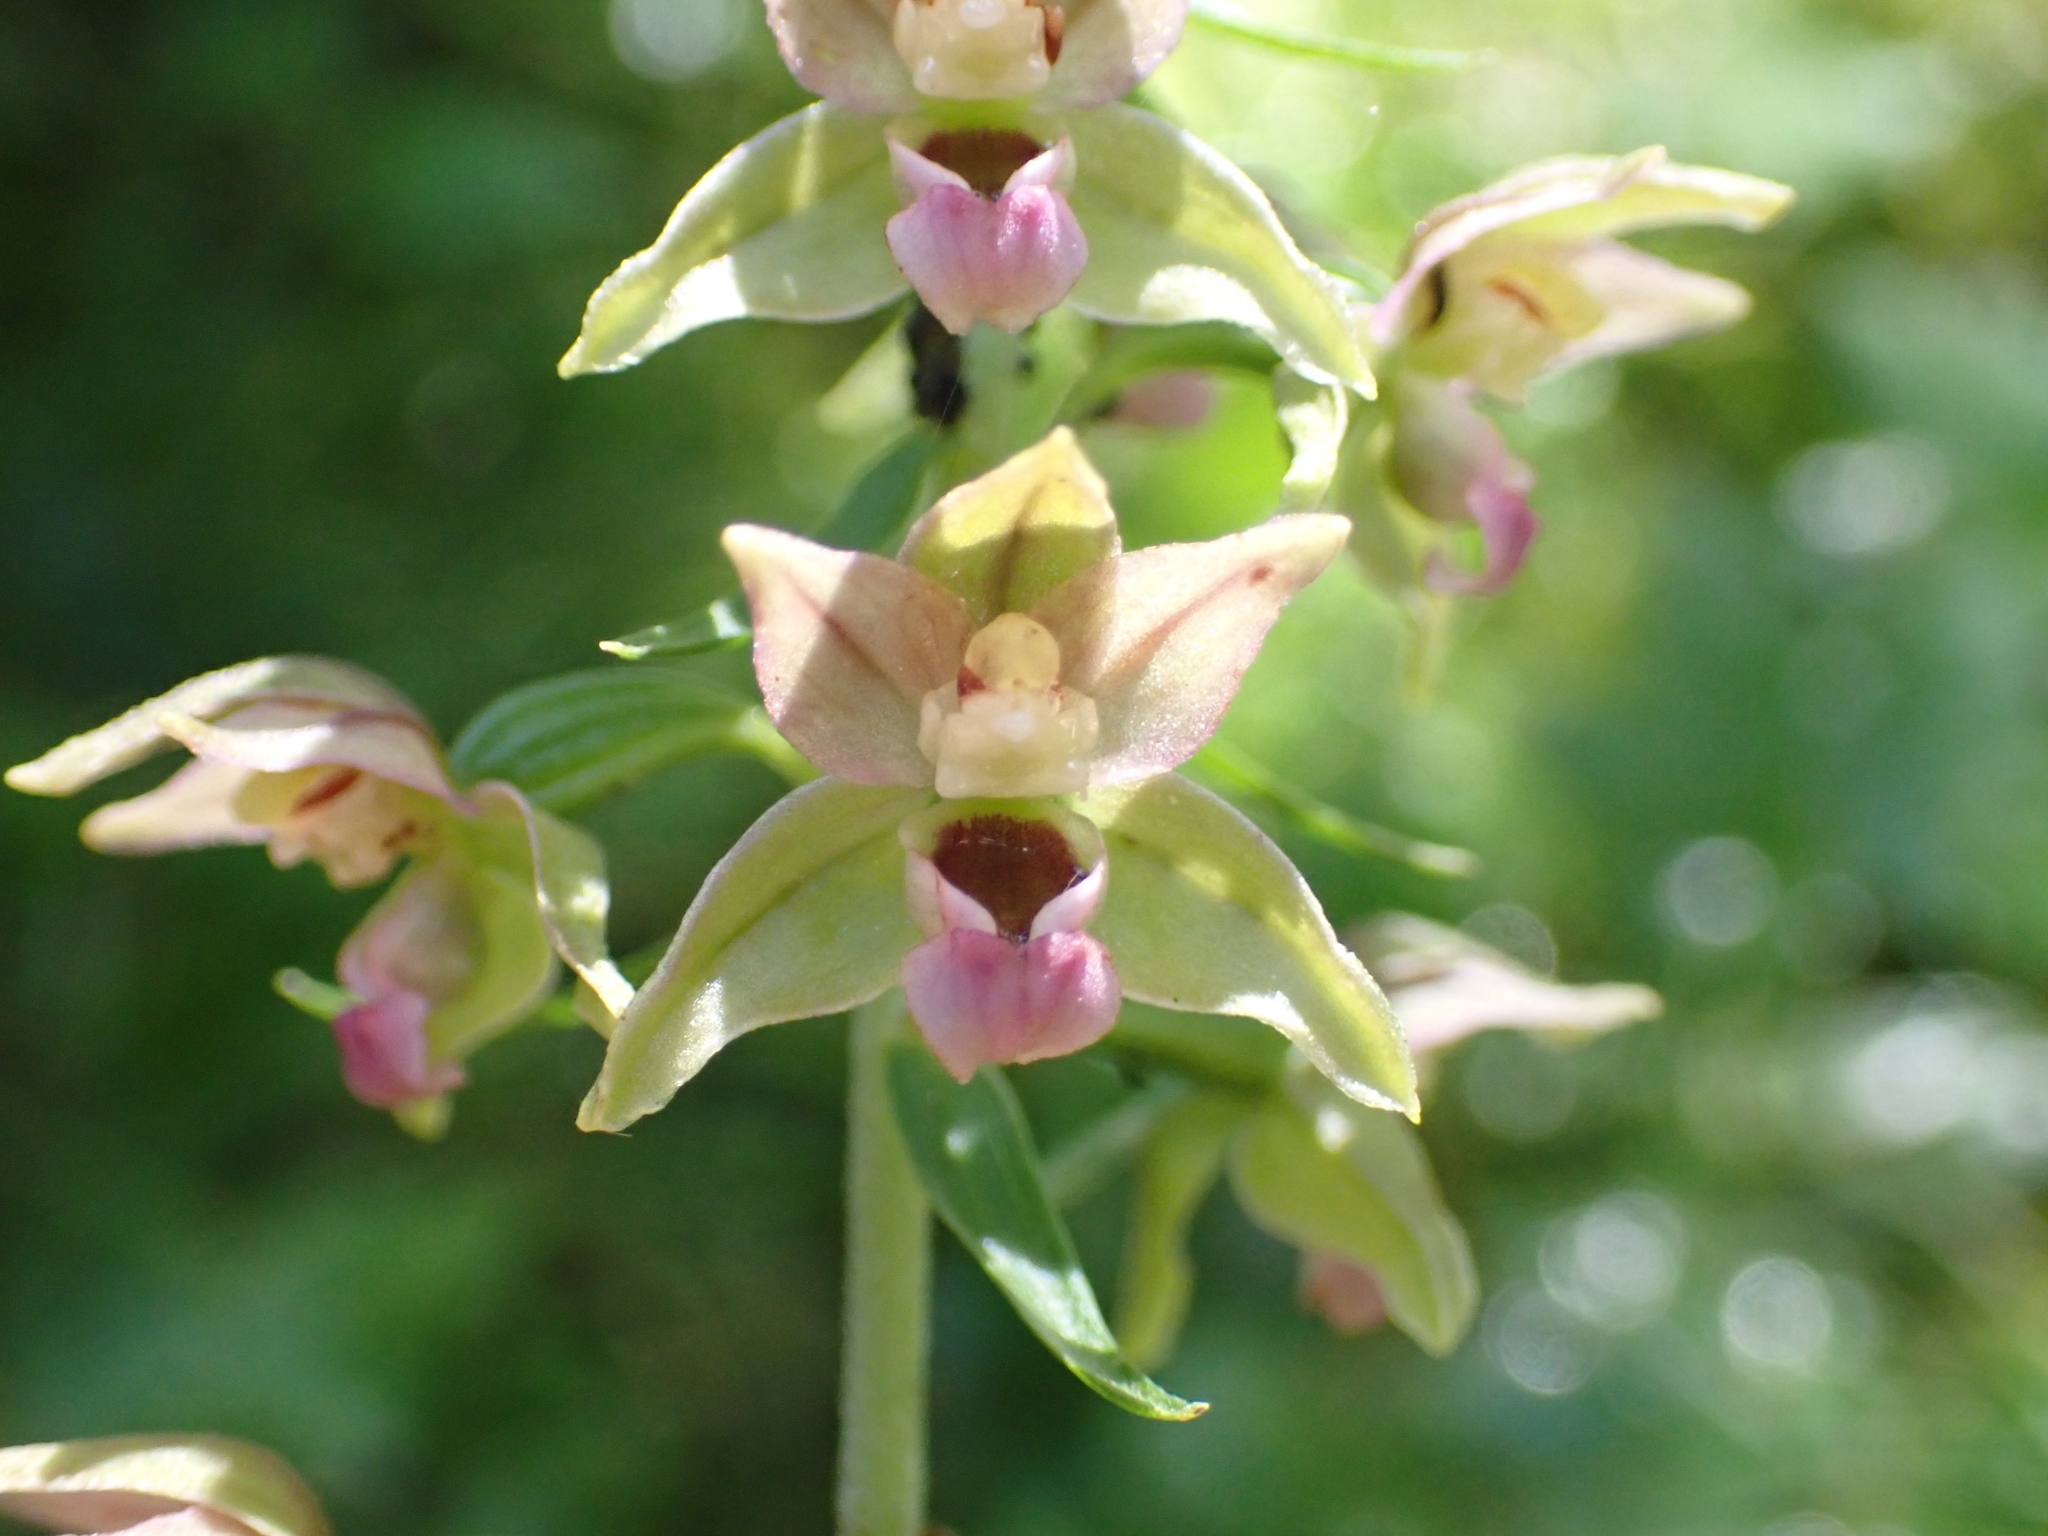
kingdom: Plantae
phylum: Tracheophyta
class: Liliopsida
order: Asparagales
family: Orchidaceae
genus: Epipactis
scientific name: Epipactis helleborine
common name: Broad-leaved helleborine
